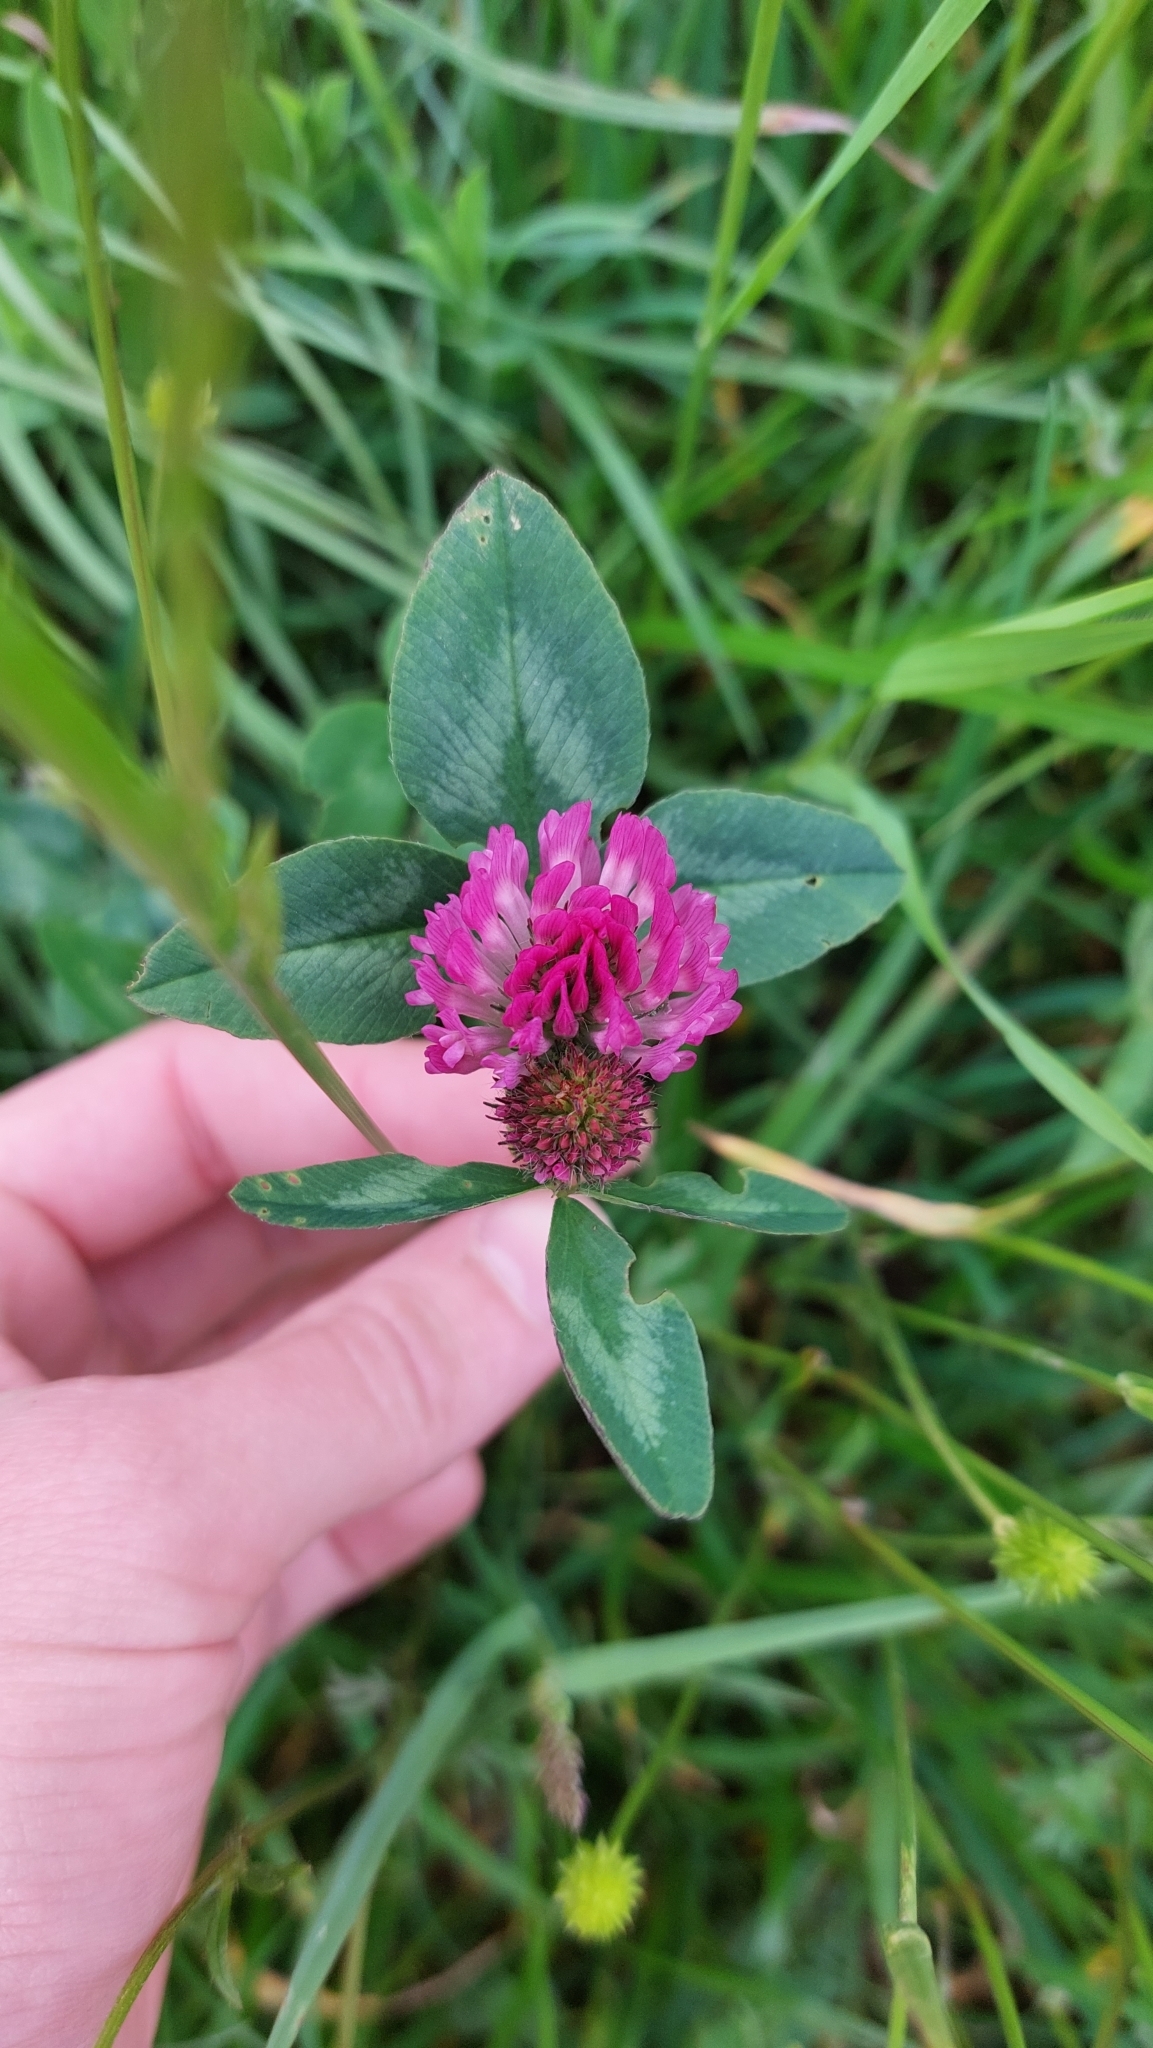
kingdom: Plantae
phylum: Tracheophyta
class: Magnoliopsida
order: Fabales
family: Fabaceae
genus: Trifolium
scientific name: Trifolium pratense
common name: Red clover
